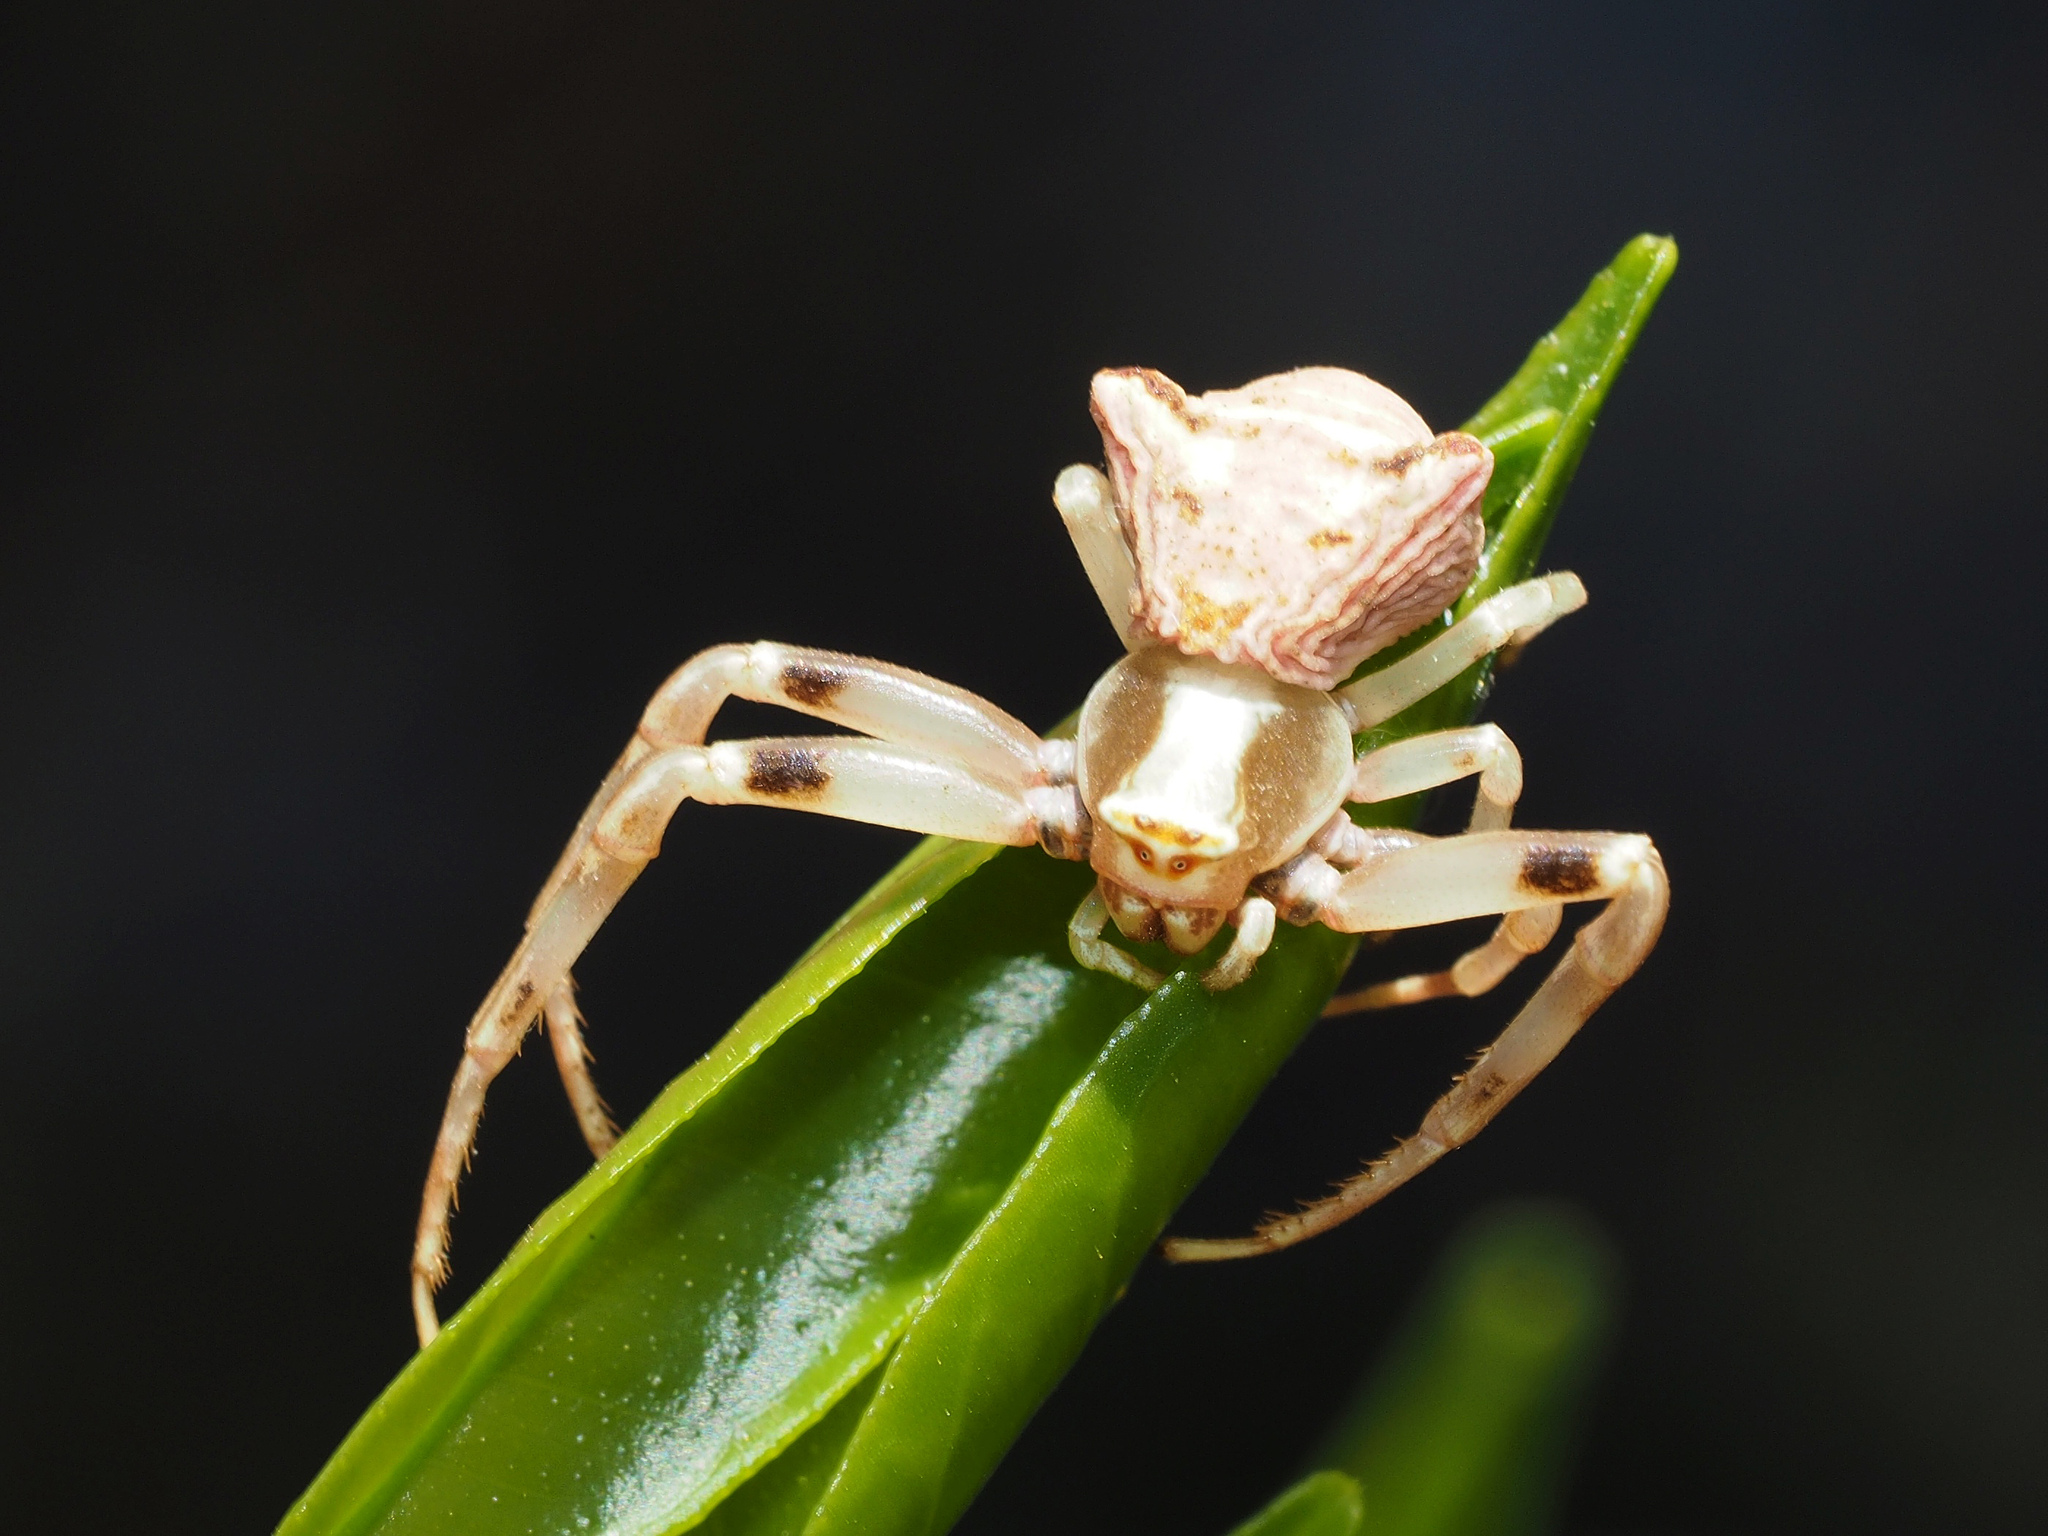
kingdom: Animalia
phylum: Arthropoda
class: Arachnida
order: Araneae
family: Thomisidae
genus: Thomisus
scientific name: Thomisus onustus
